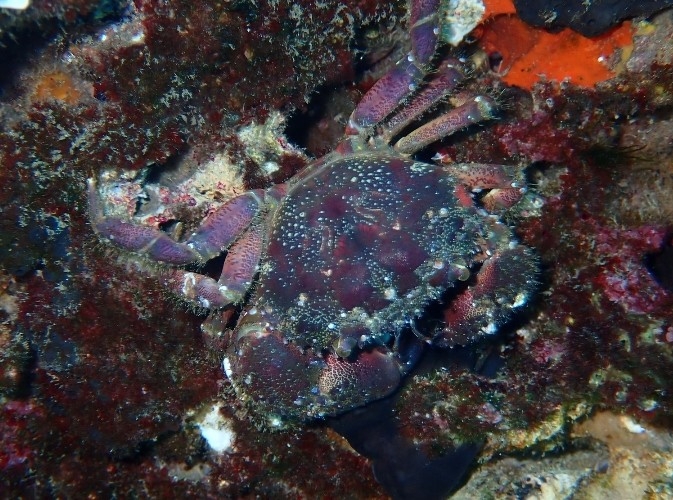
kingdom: Animalia
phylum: Arthropoda
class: Malacostraca
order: Decapoda
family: Eriphiidae
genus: Eriphia
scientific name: Eriphia verrucosa
